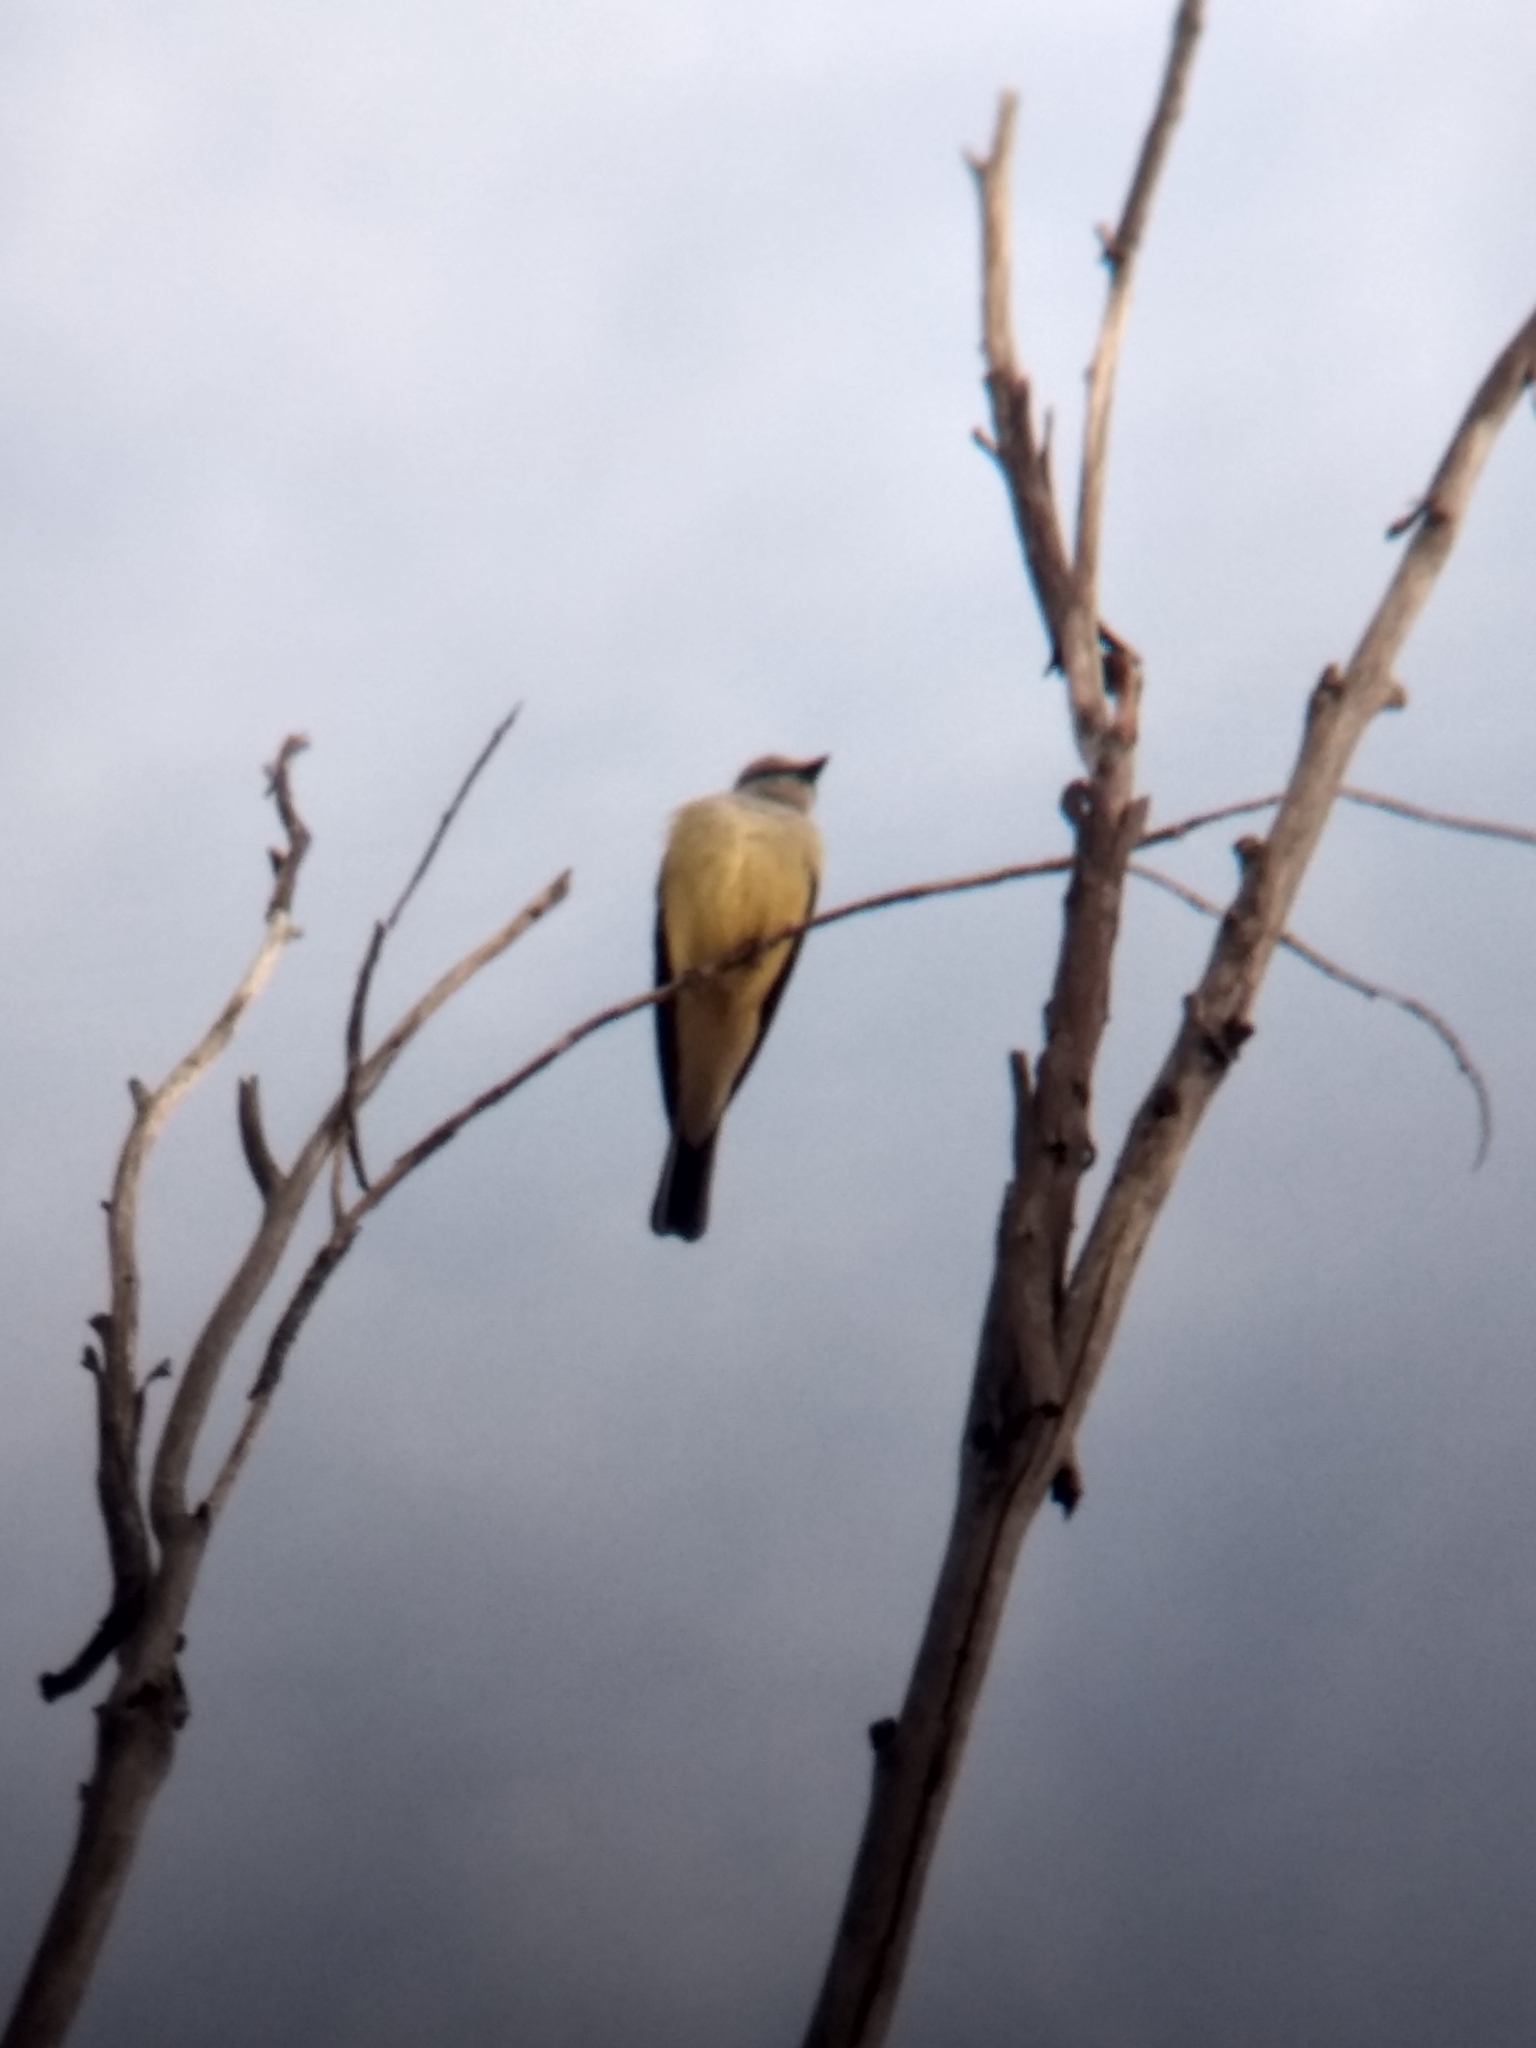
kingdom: Animalia
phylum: Chordata
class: Aves
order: Passeriformes
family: Tyrannidae
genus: Tyrannus
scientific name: Tyrannus verticalis
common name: Western kingbird
